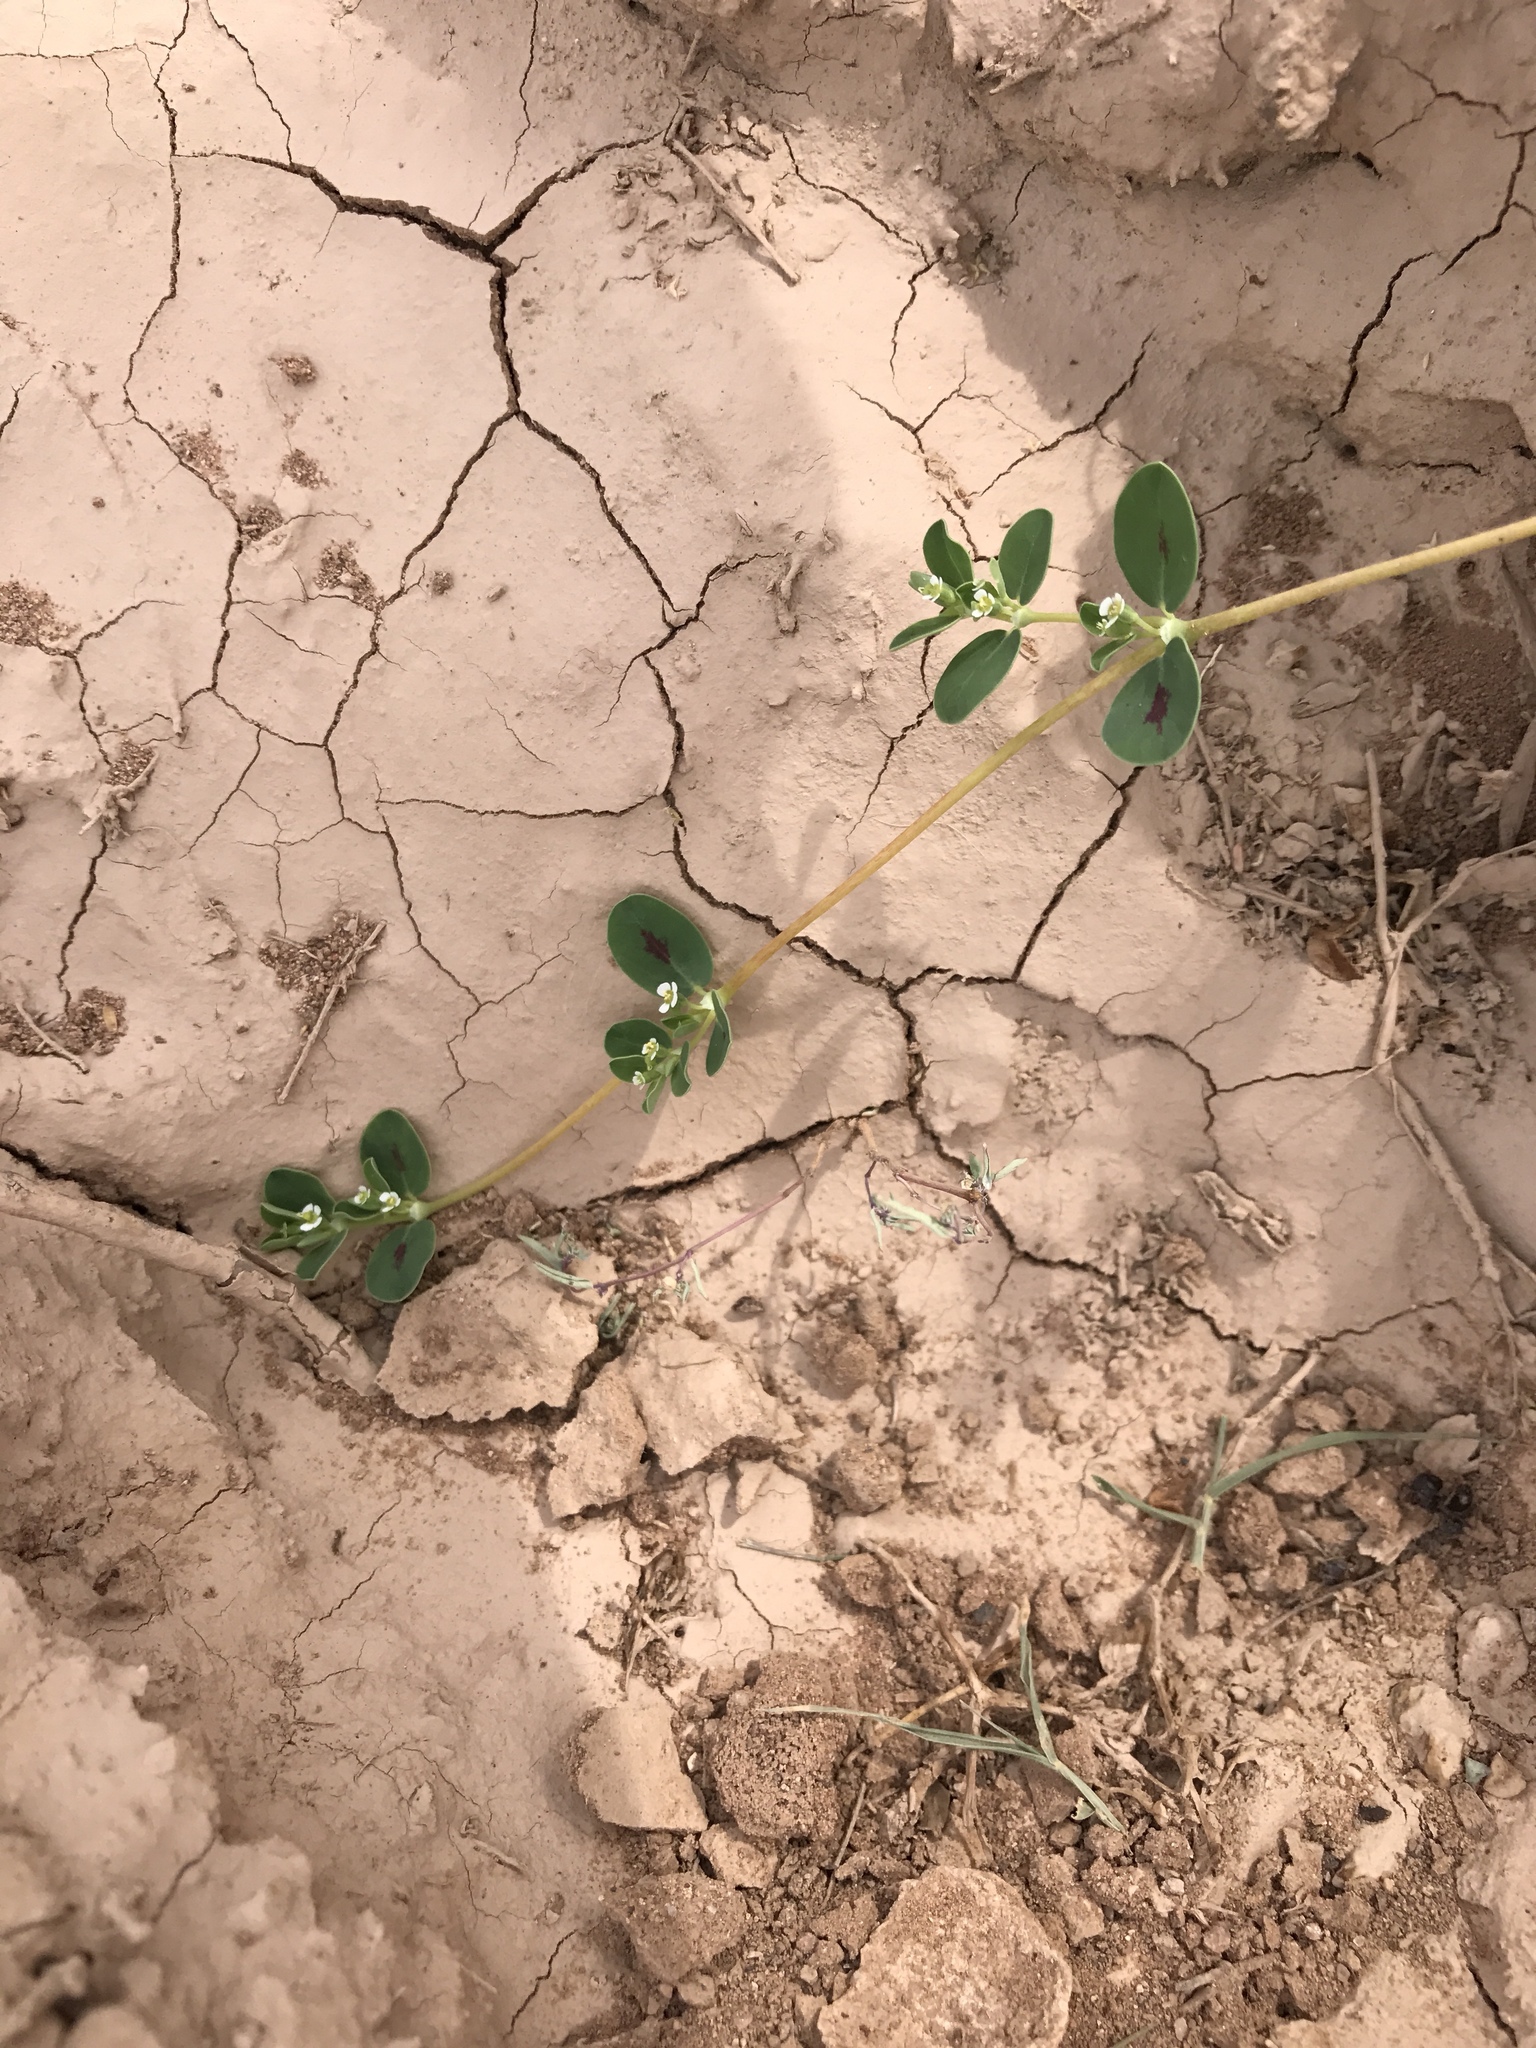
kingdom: Plantae
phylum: Tracheophyta
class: Magnoliopsida
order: Malpighiales
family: Euphorbiaceae
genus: Euphorbia
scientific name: Euphorbia albomarginata
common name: Whitemargin sandmat
